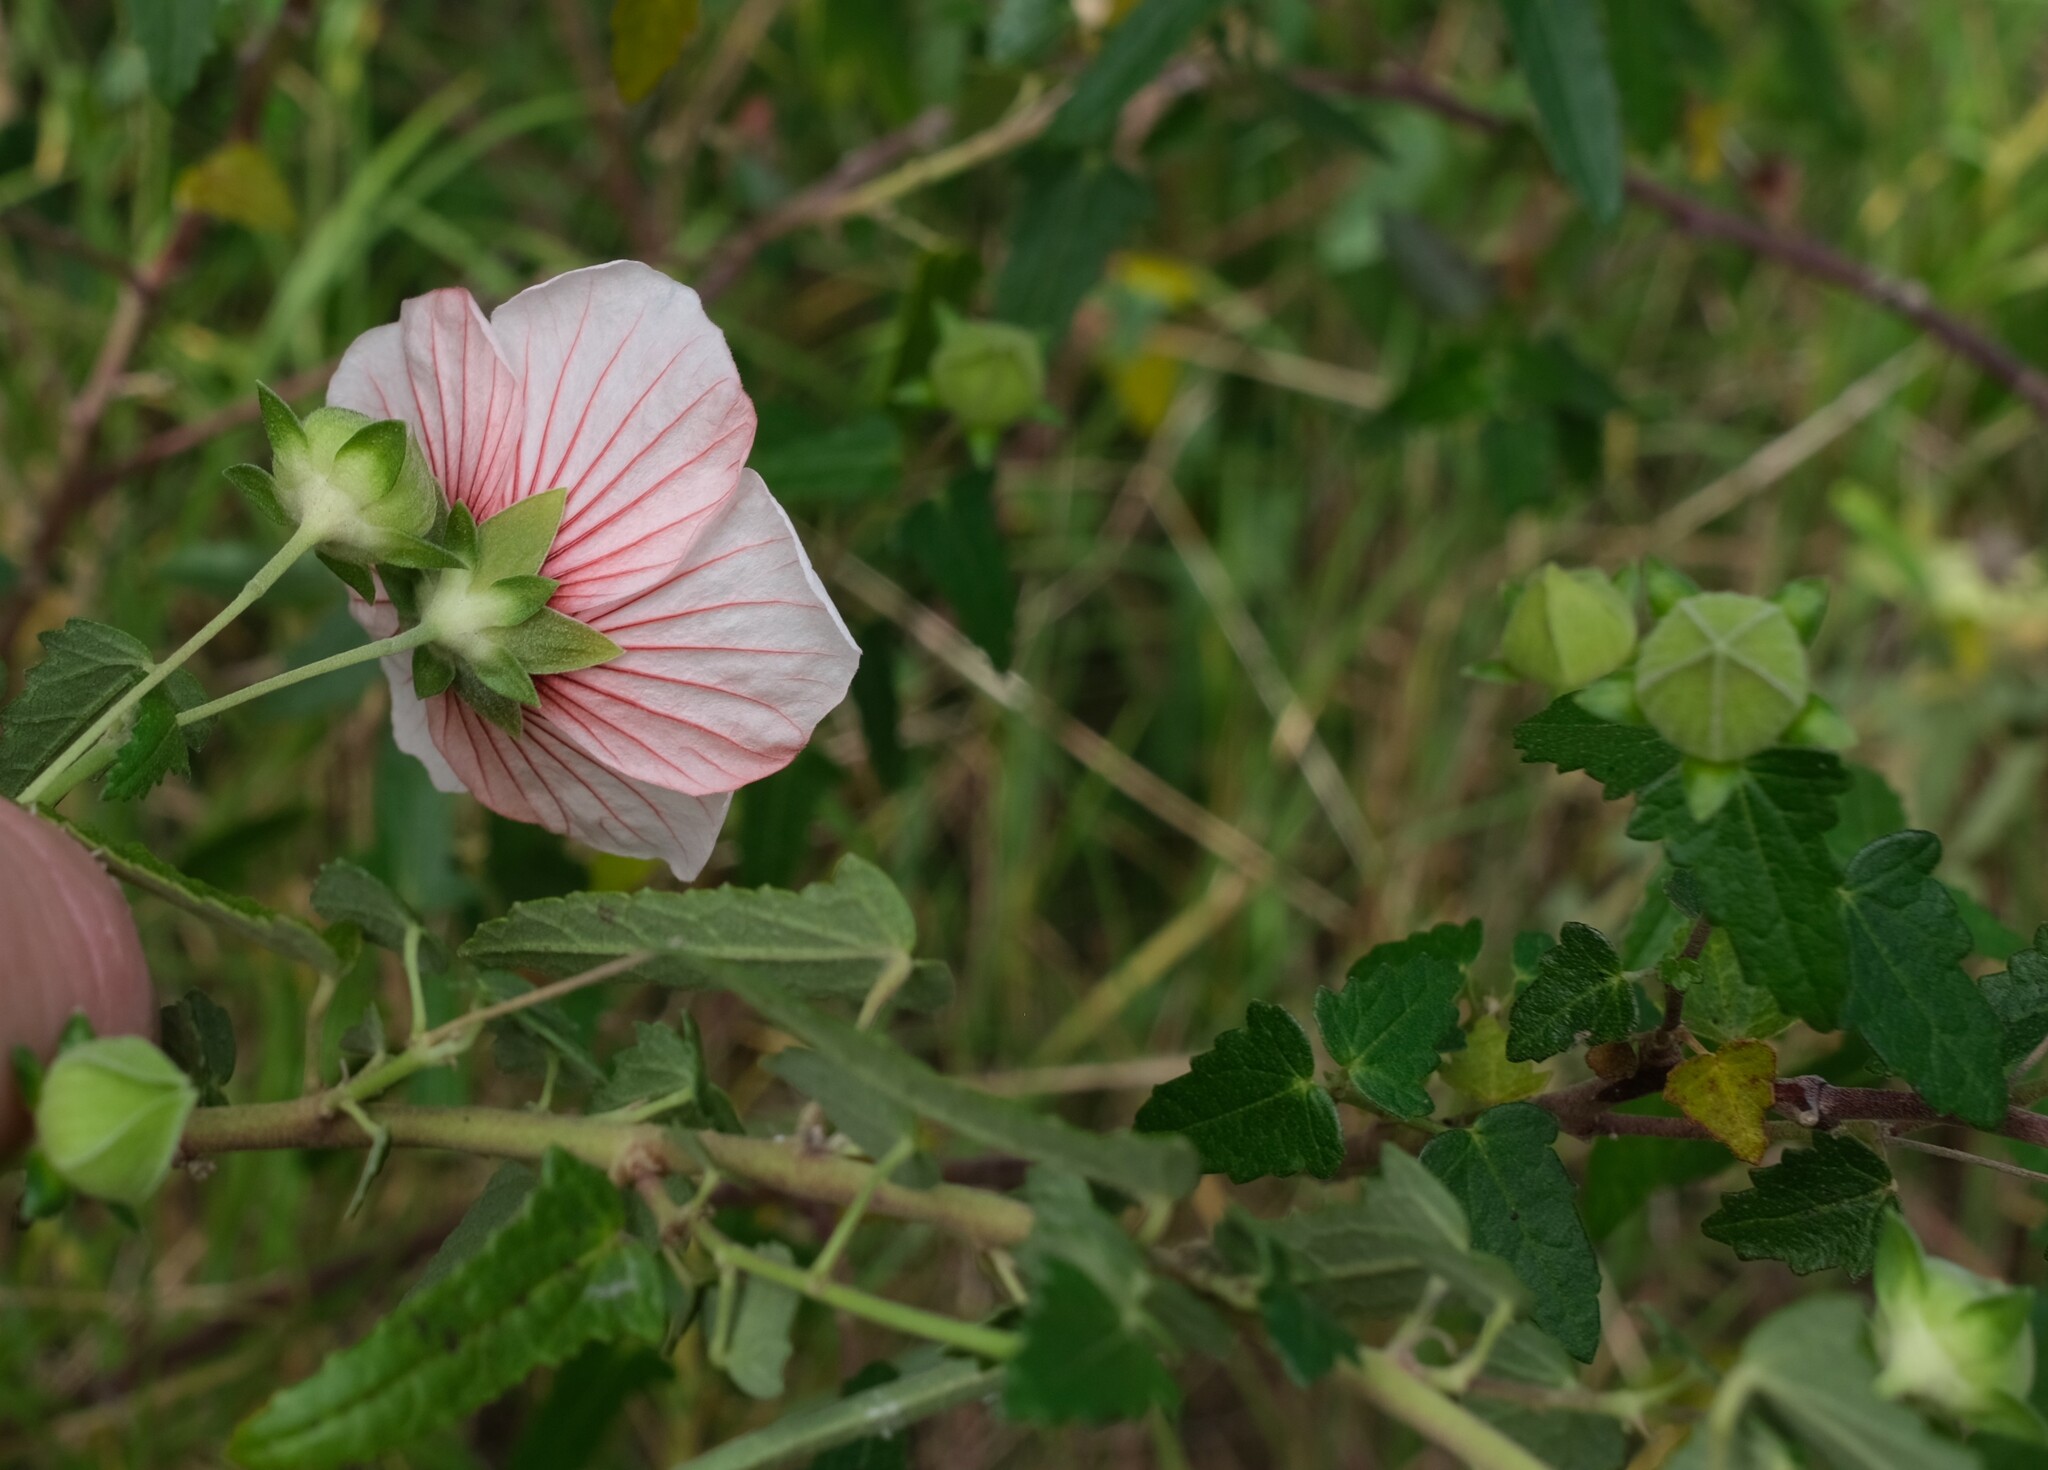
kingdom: Plantae
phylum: Tracheophyta
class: Magnoliopsida
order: Malvales
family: Malvaceae
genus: Pavonia
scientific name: Pavonia hastata
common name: Spearleaf swampmallow
